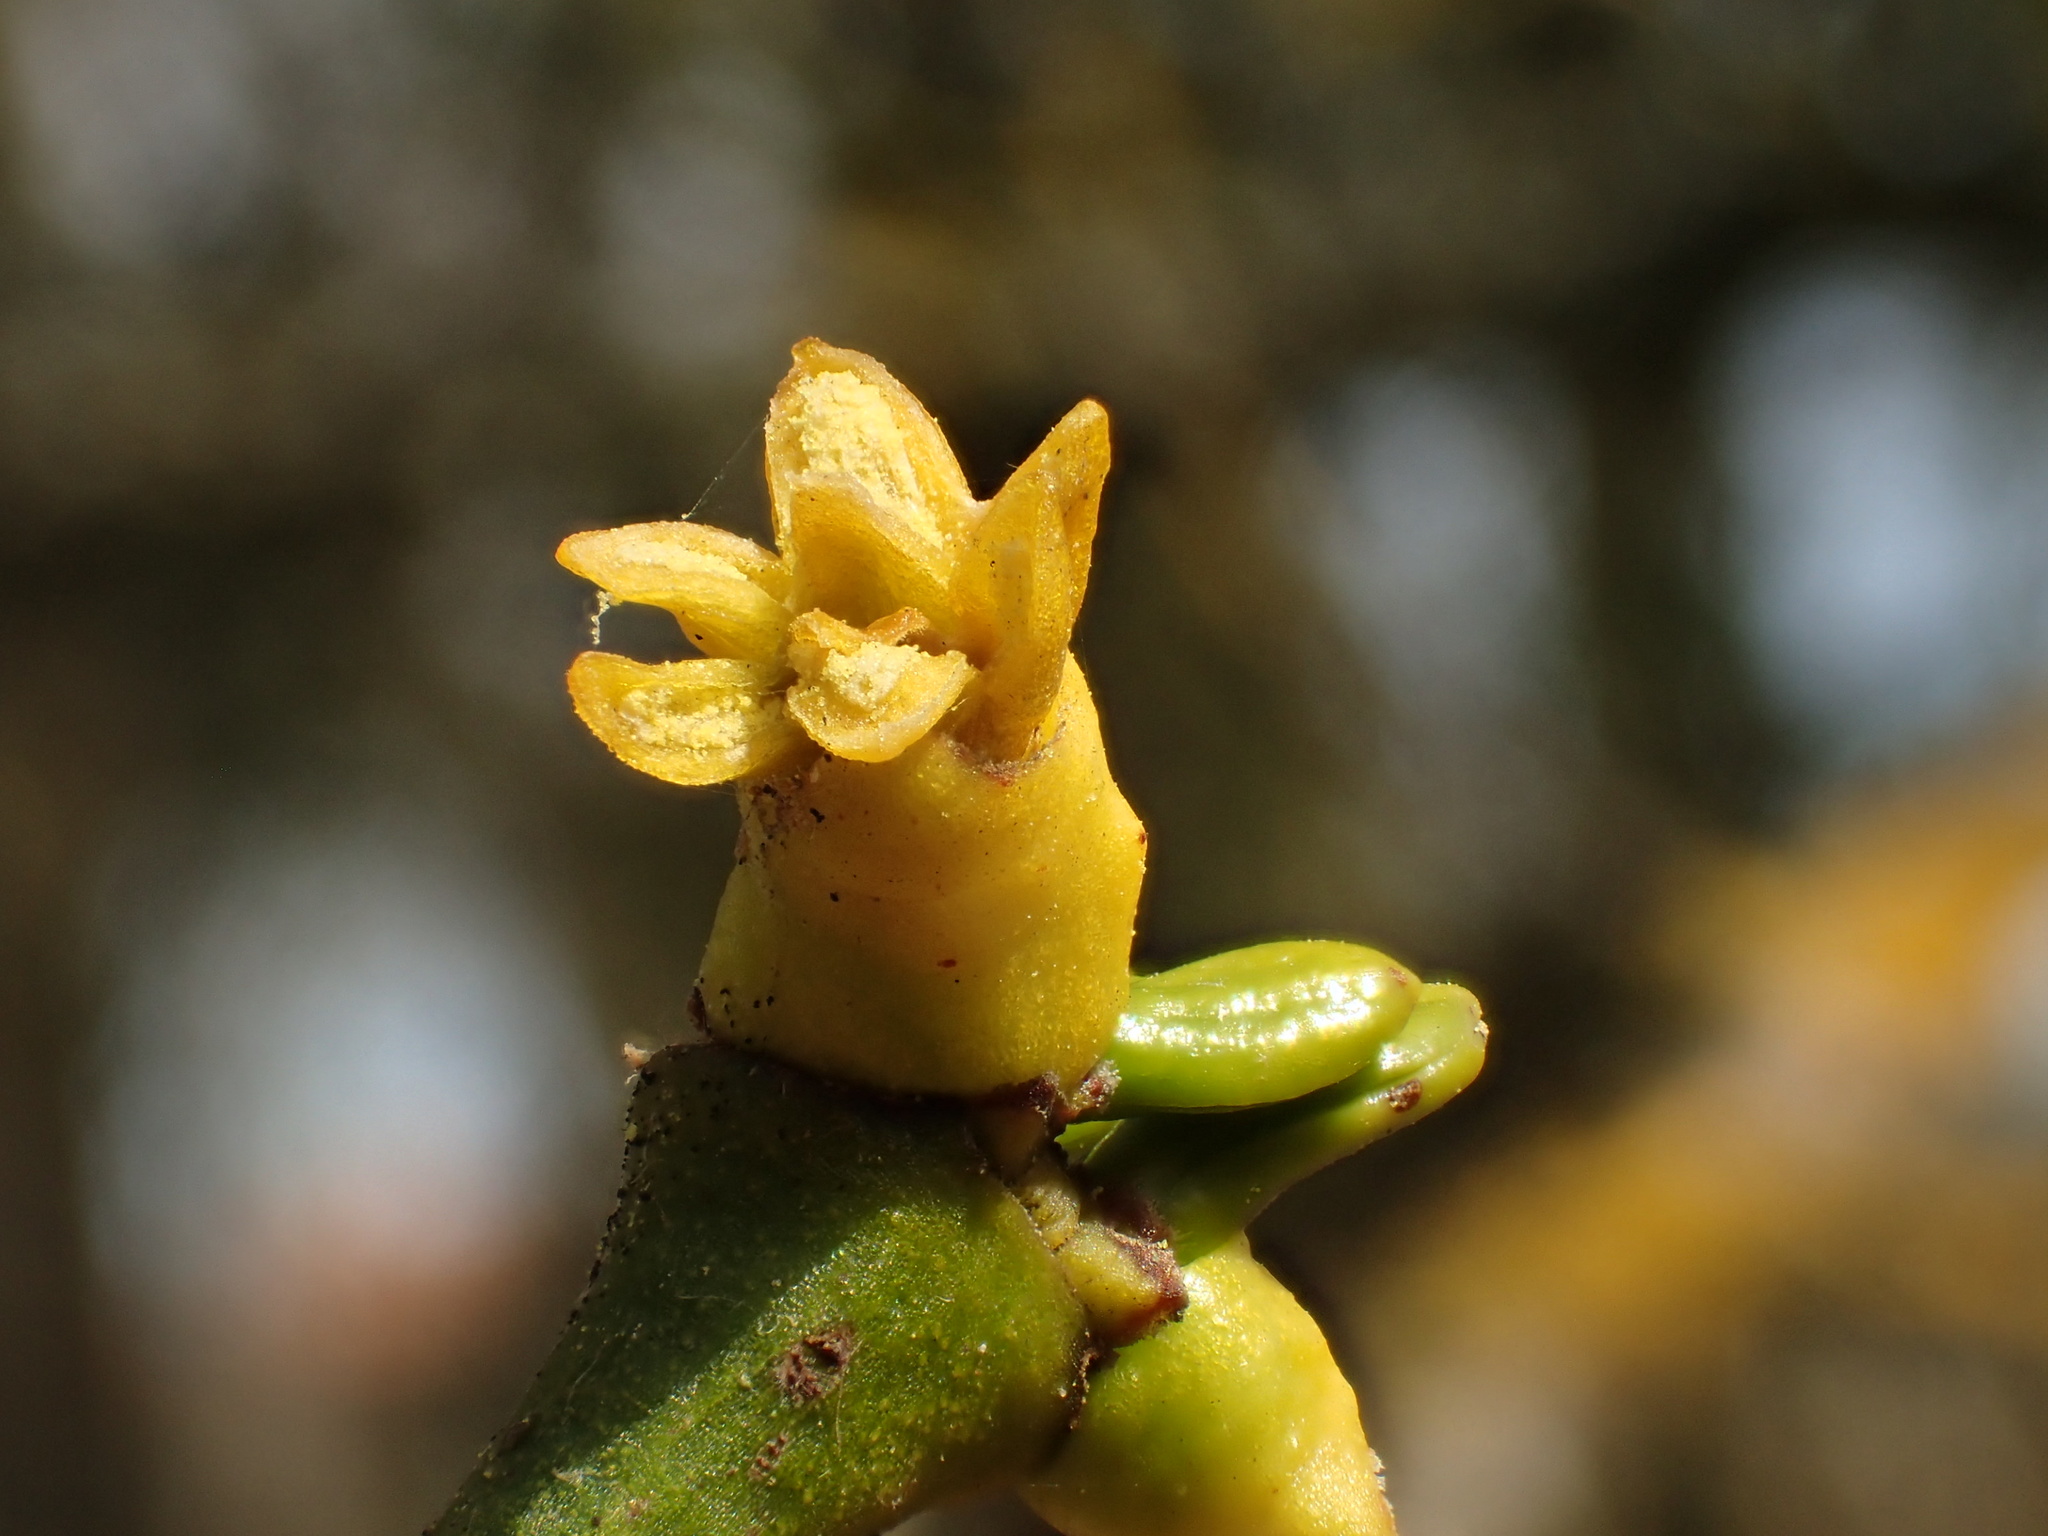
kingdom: Plantae
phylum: Tracheophyta
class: Magnoliopsida
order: Santalales
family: Viscaceae
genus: Viscum
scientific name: Viscum album
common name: Mistletoe
